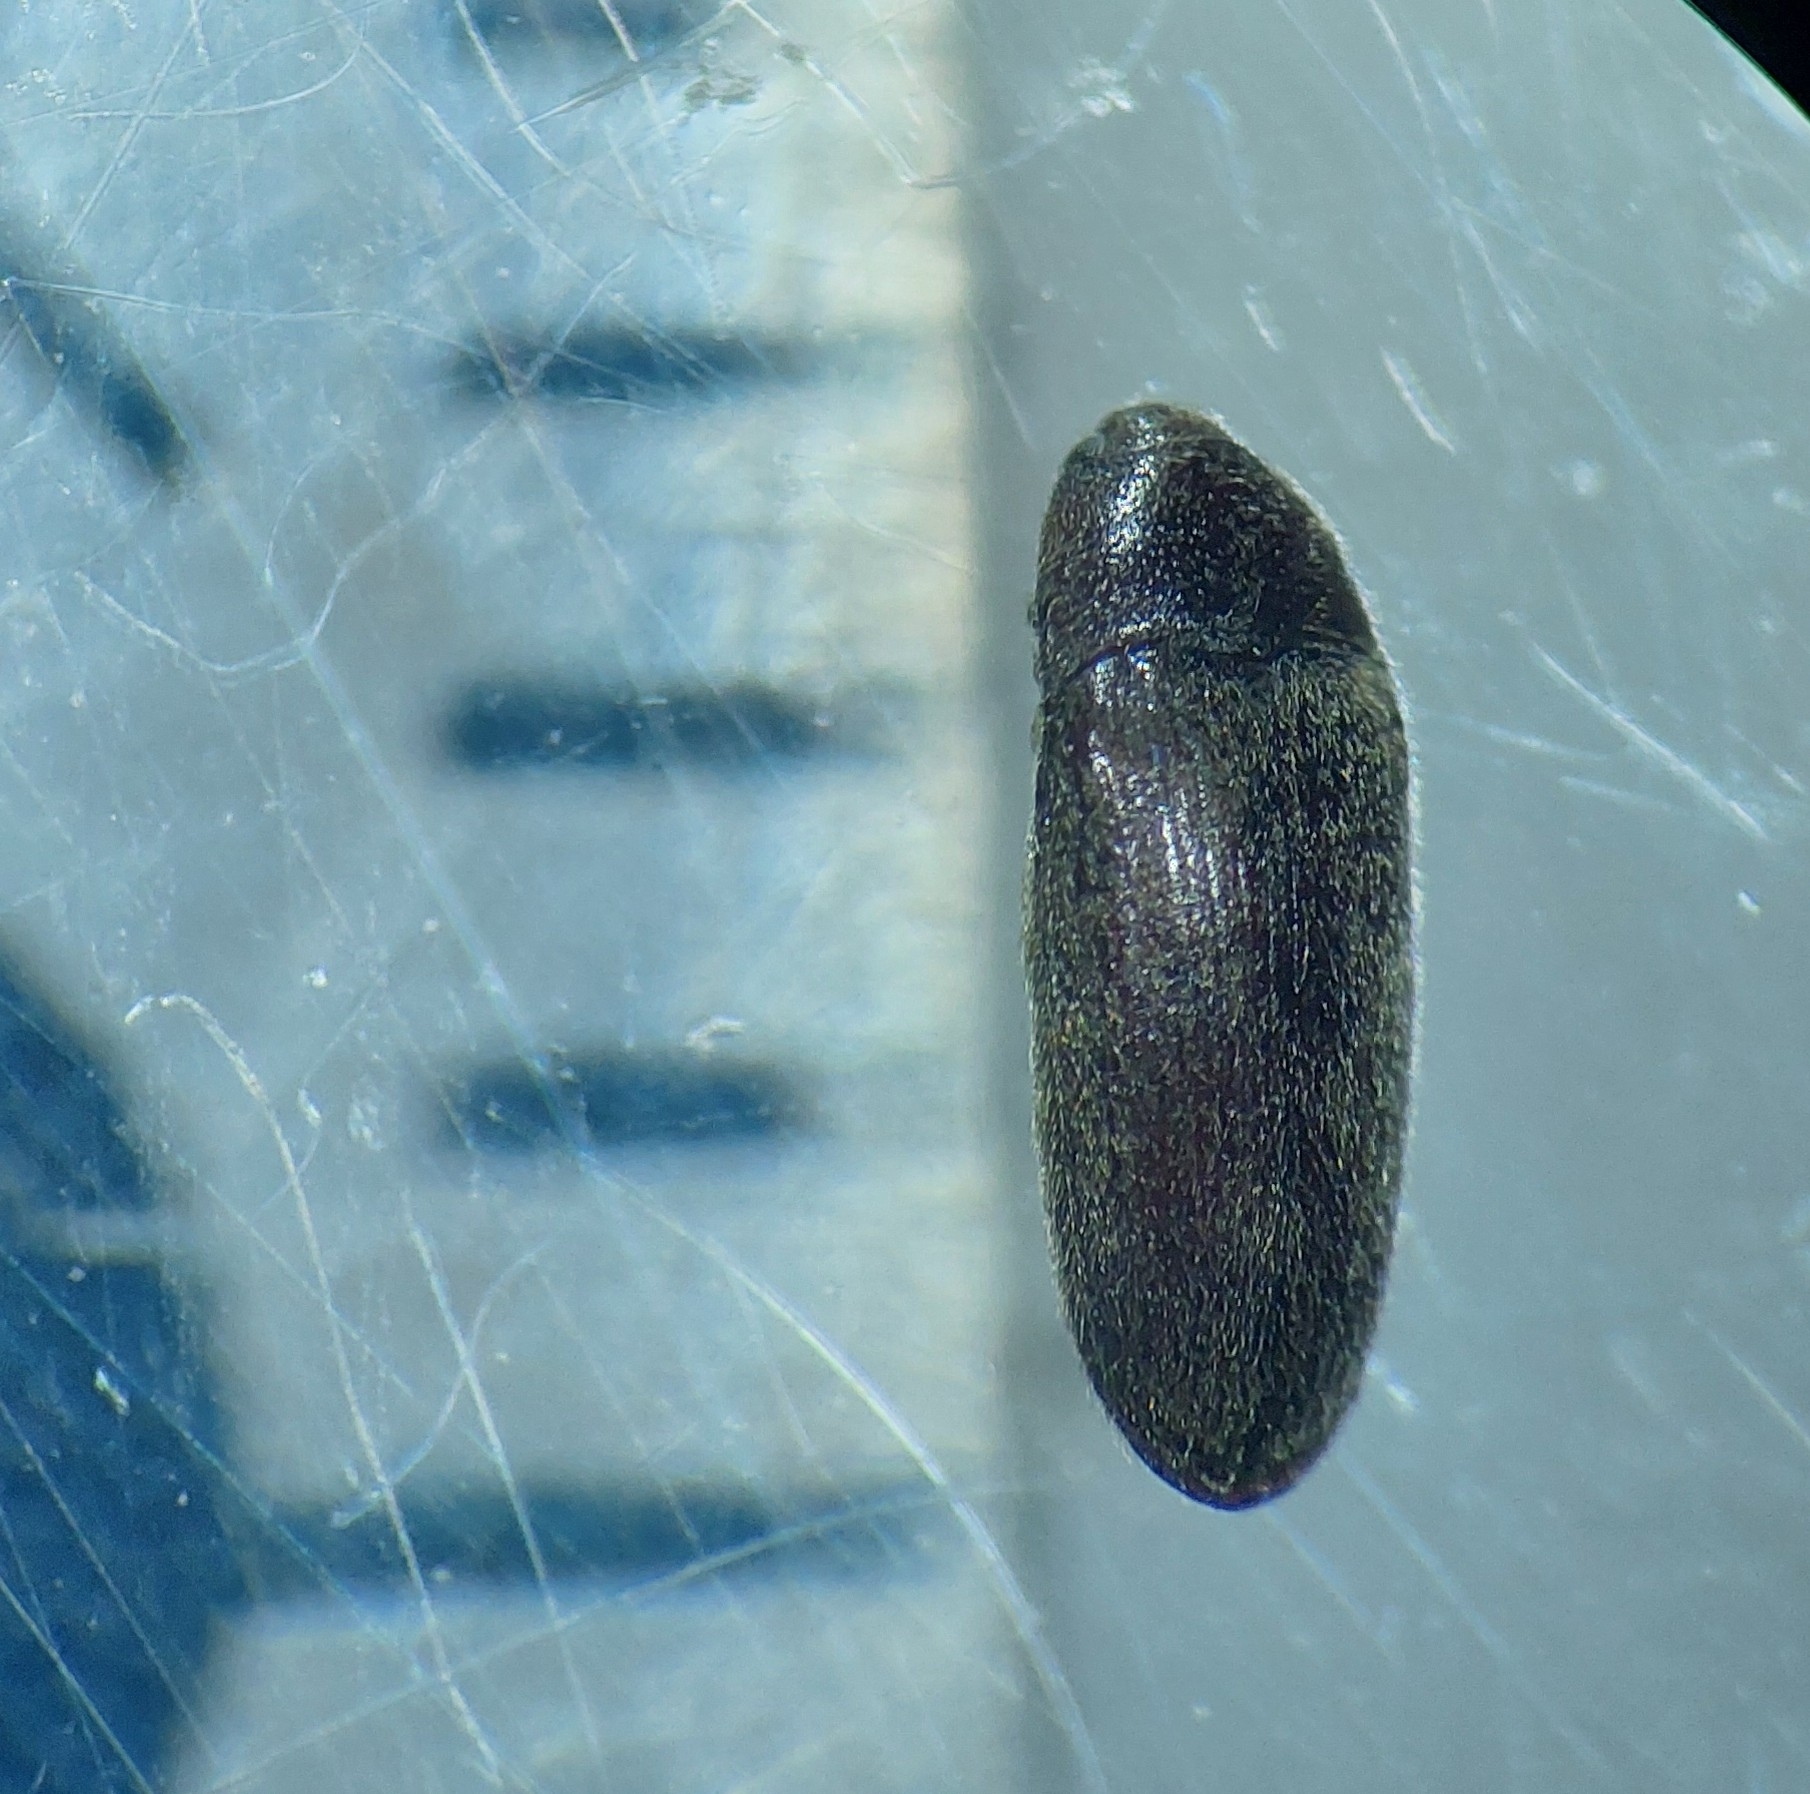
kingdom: Animalia
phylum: Arthropoda
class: Insecta
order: Coleoptera
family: Throscidae
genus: Aulonothroscus
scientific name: Aulonothroscus brevicollis
